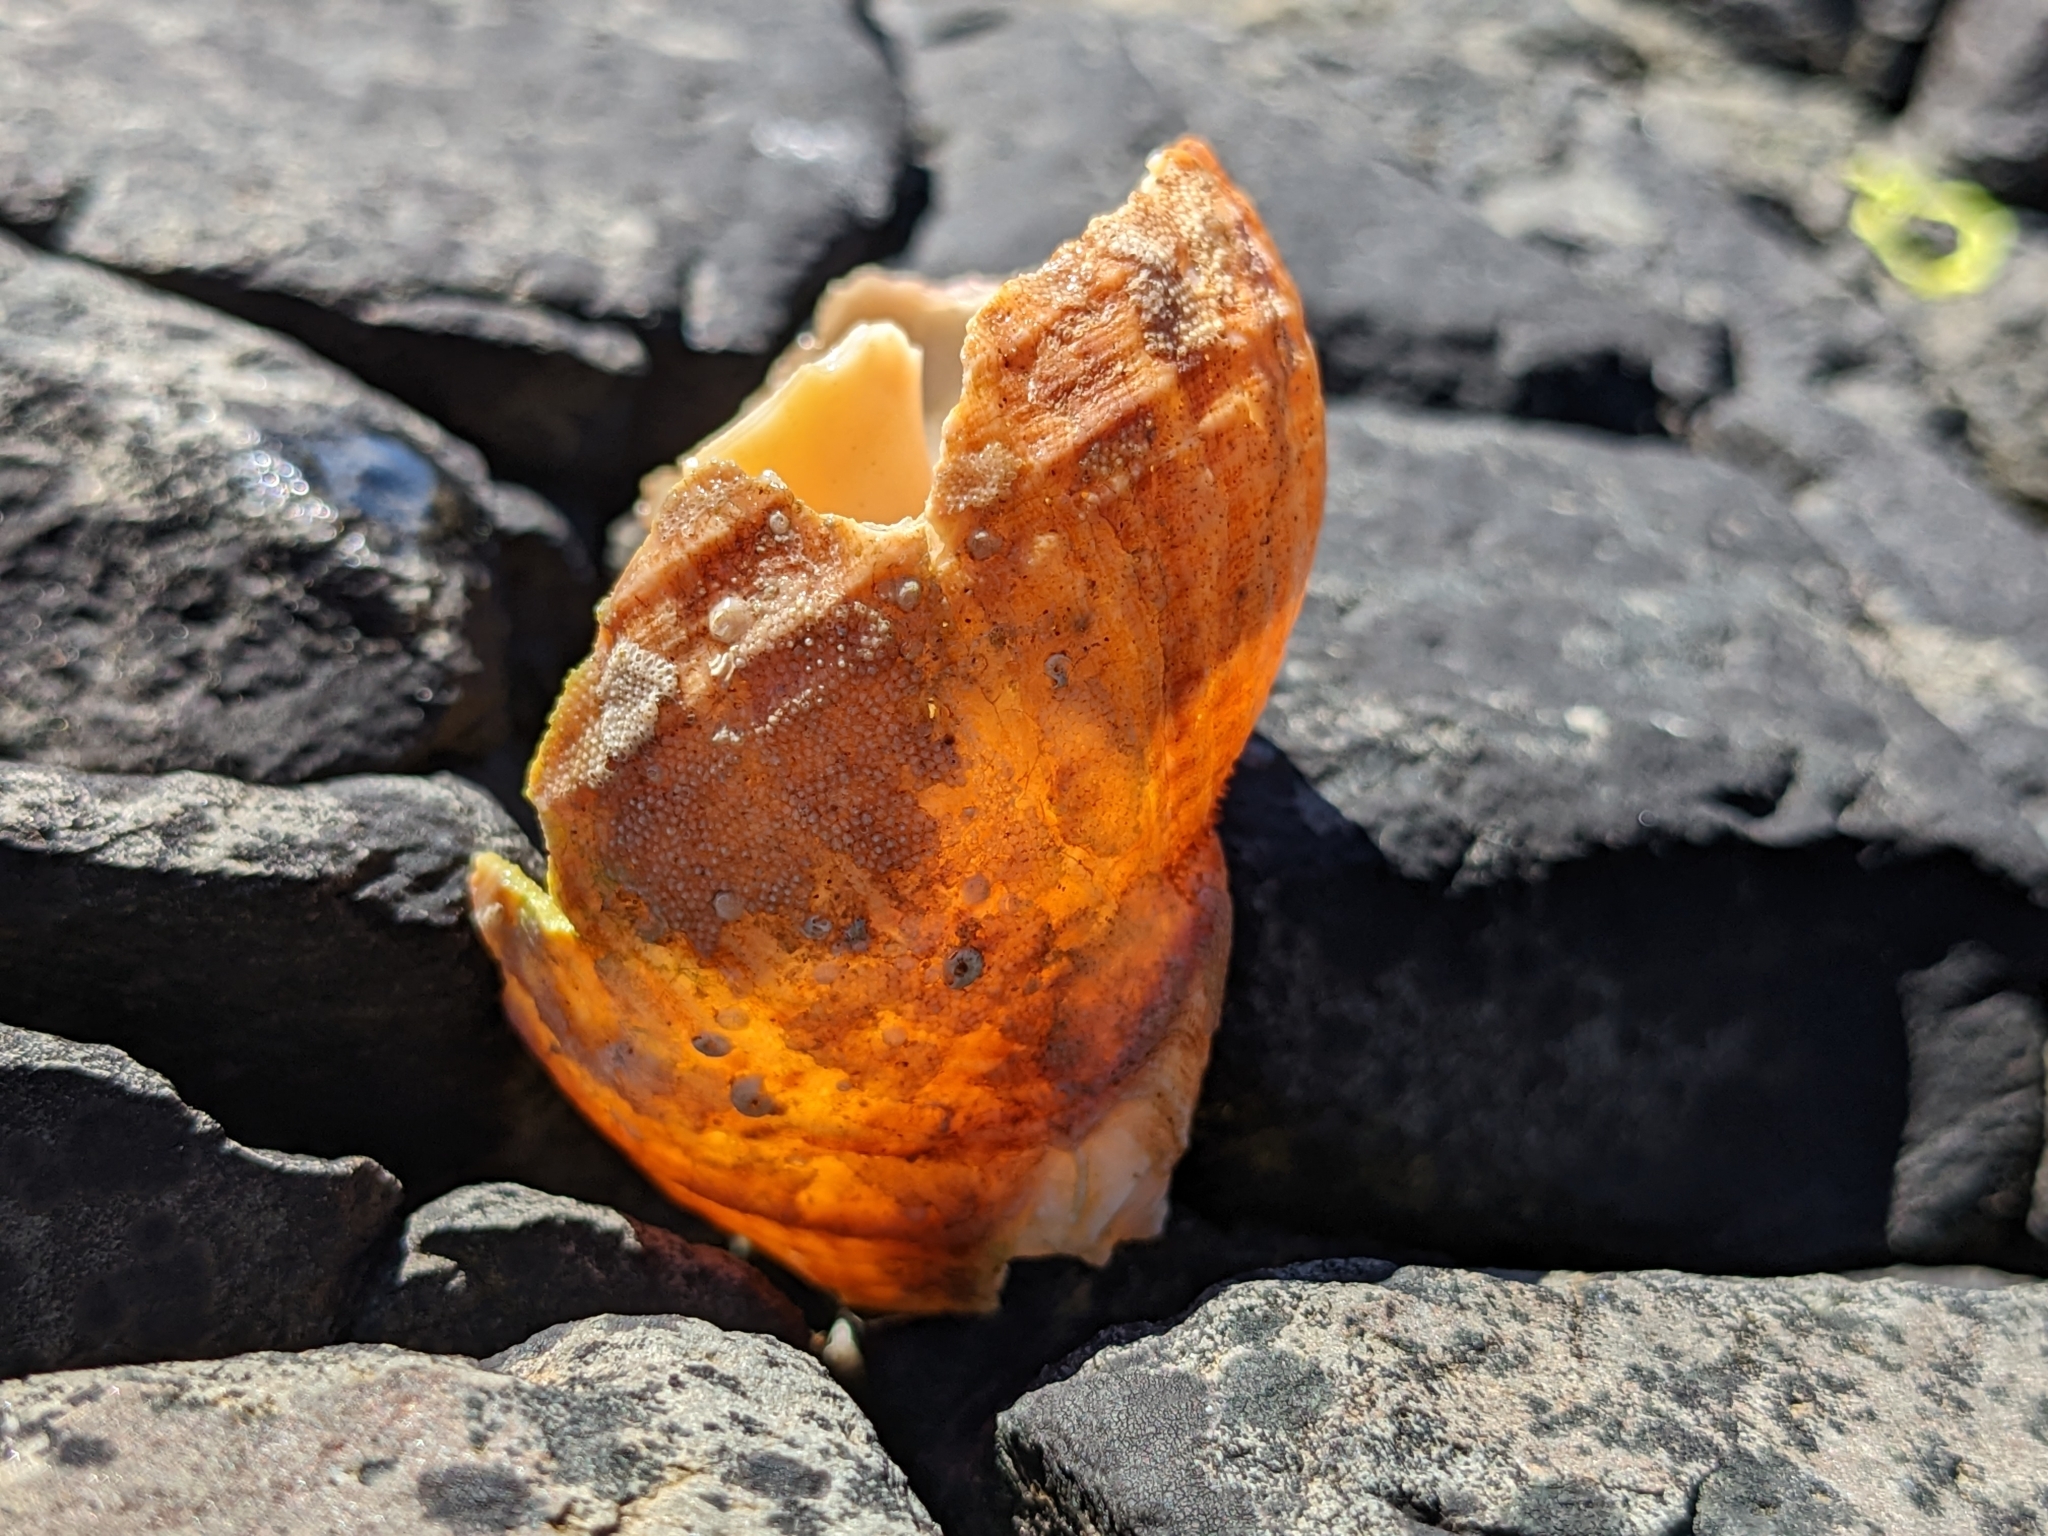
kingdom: Animalia
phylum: Mollusca
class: Gastropoda
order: Neogastropoda
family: Buccinidae
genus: Buccinum
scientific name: Buccinum undatum
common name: Common whelk
